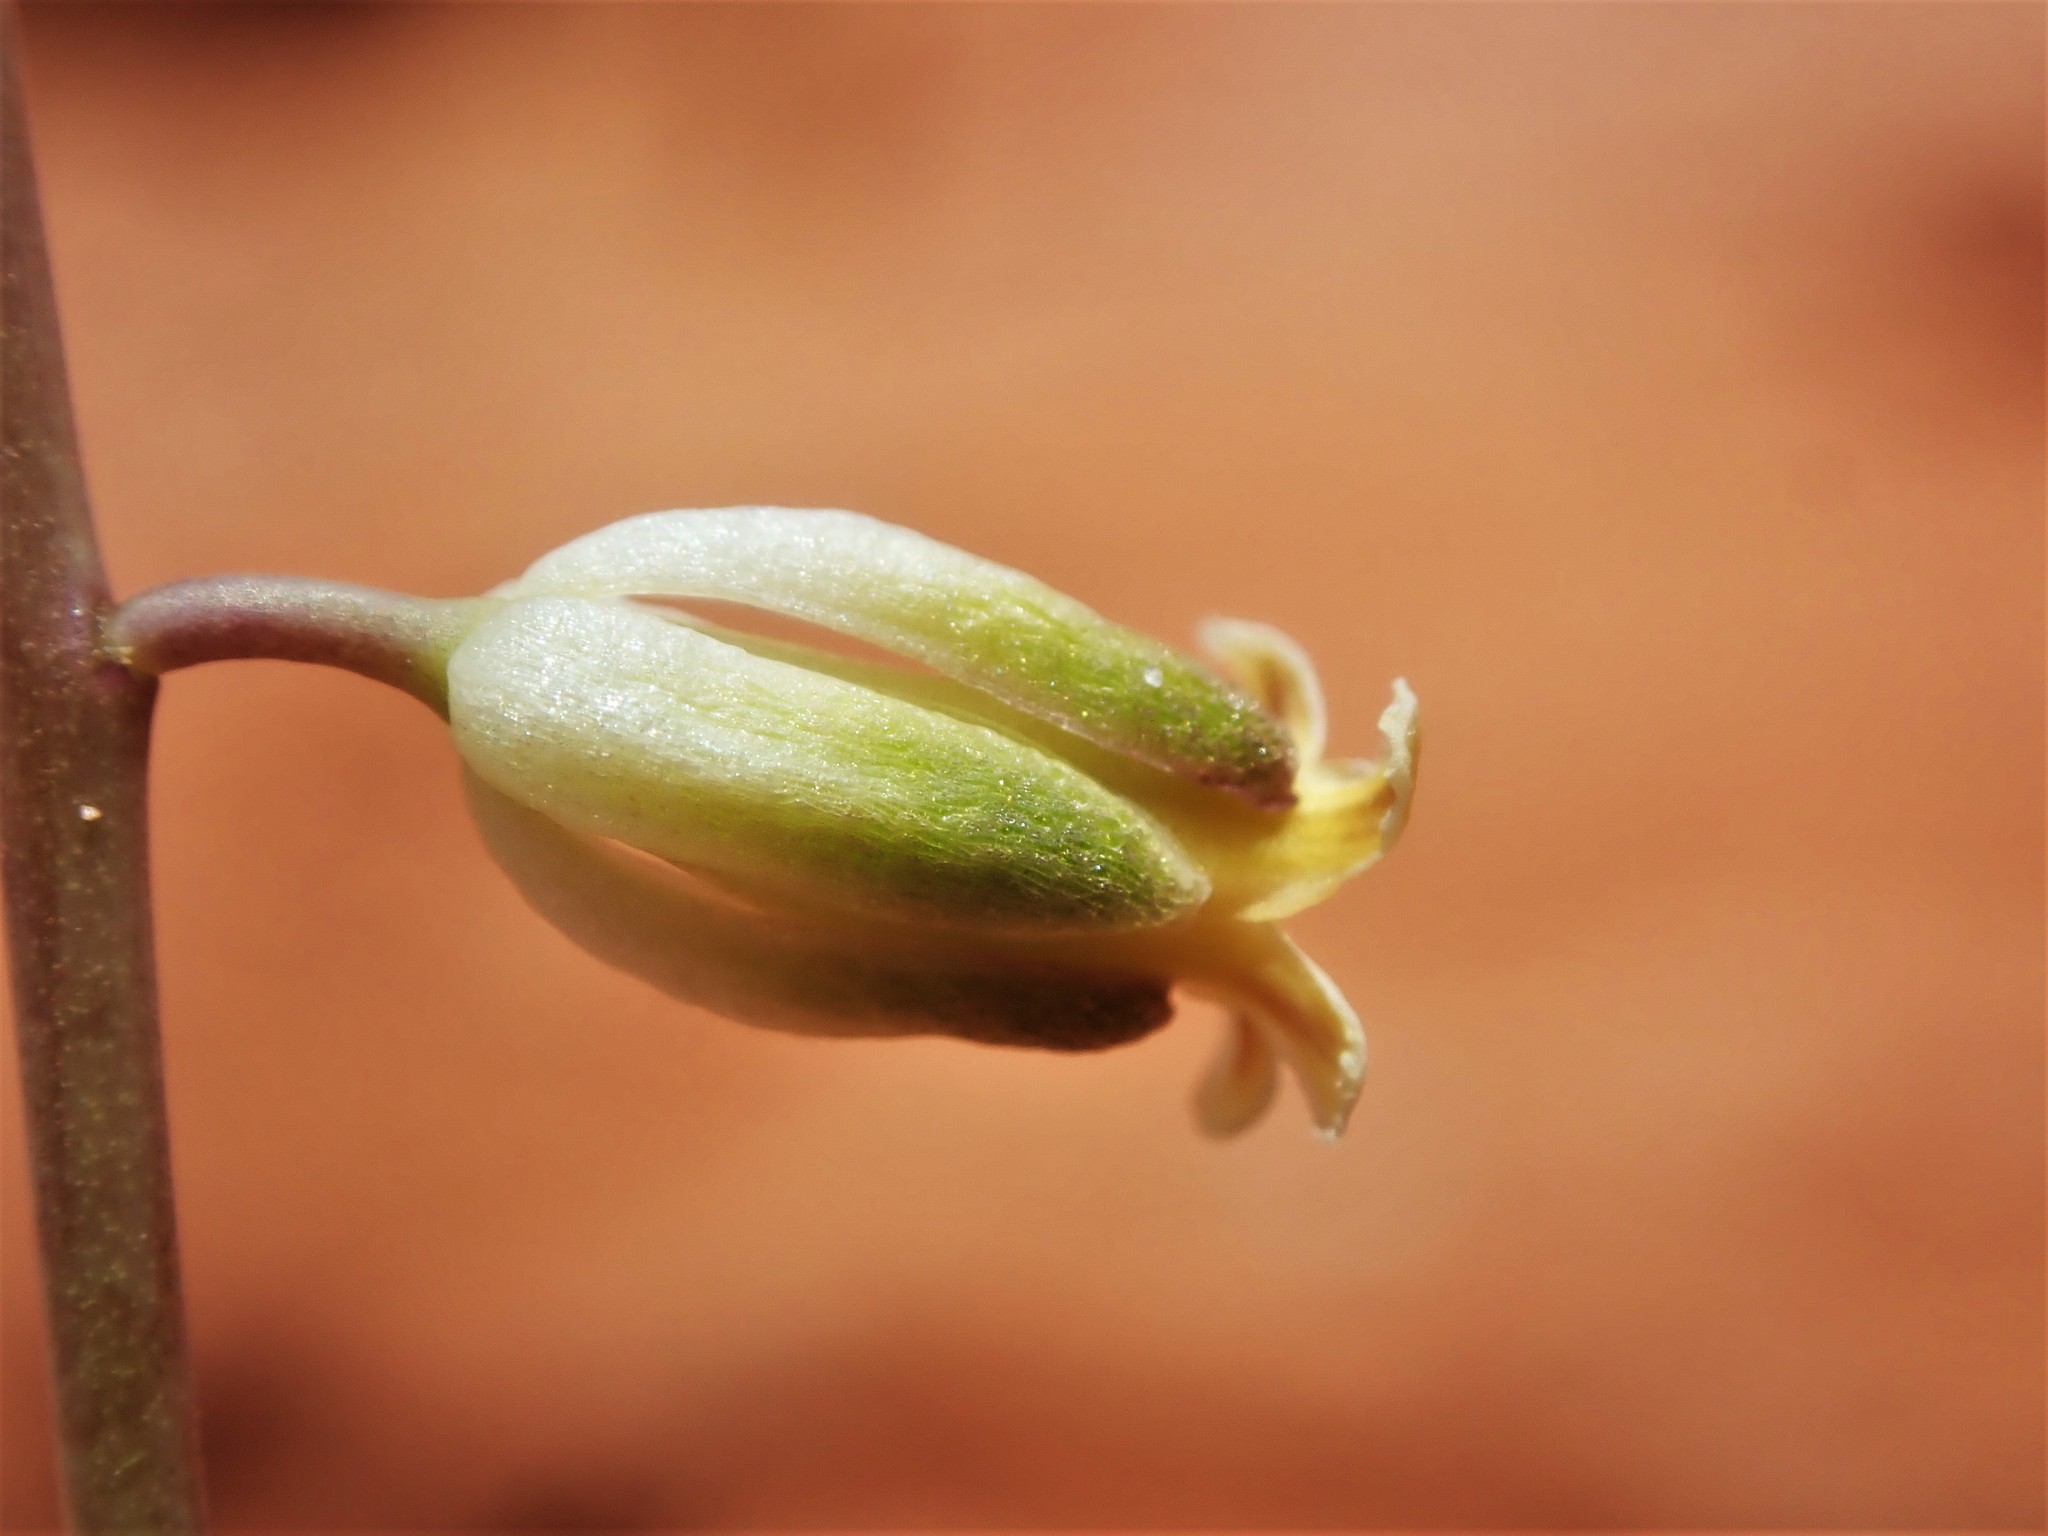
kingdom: Plantae
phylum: Tracheophyta
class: Magnoliopsida
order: Brassicales
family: Brassicaceae
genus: Streptanthus
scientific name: Streptanthus longirostris
